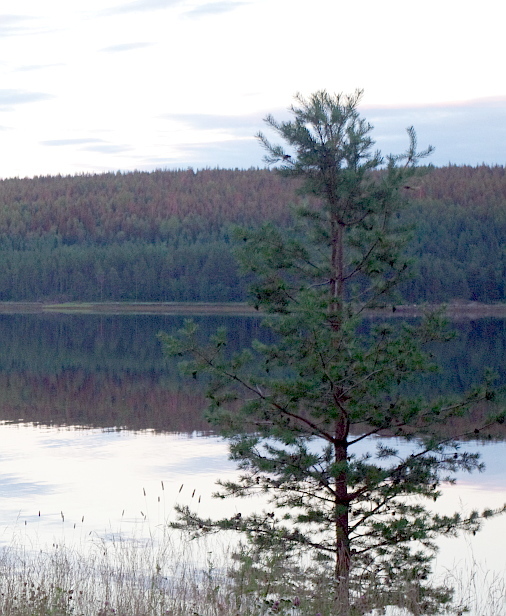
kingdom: Plantae
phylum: Tracheophyta
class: Pinopsida
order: Pinales
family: Pinaceae
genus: Pinus
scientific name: Pinus sylvestris
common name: Scots pine
